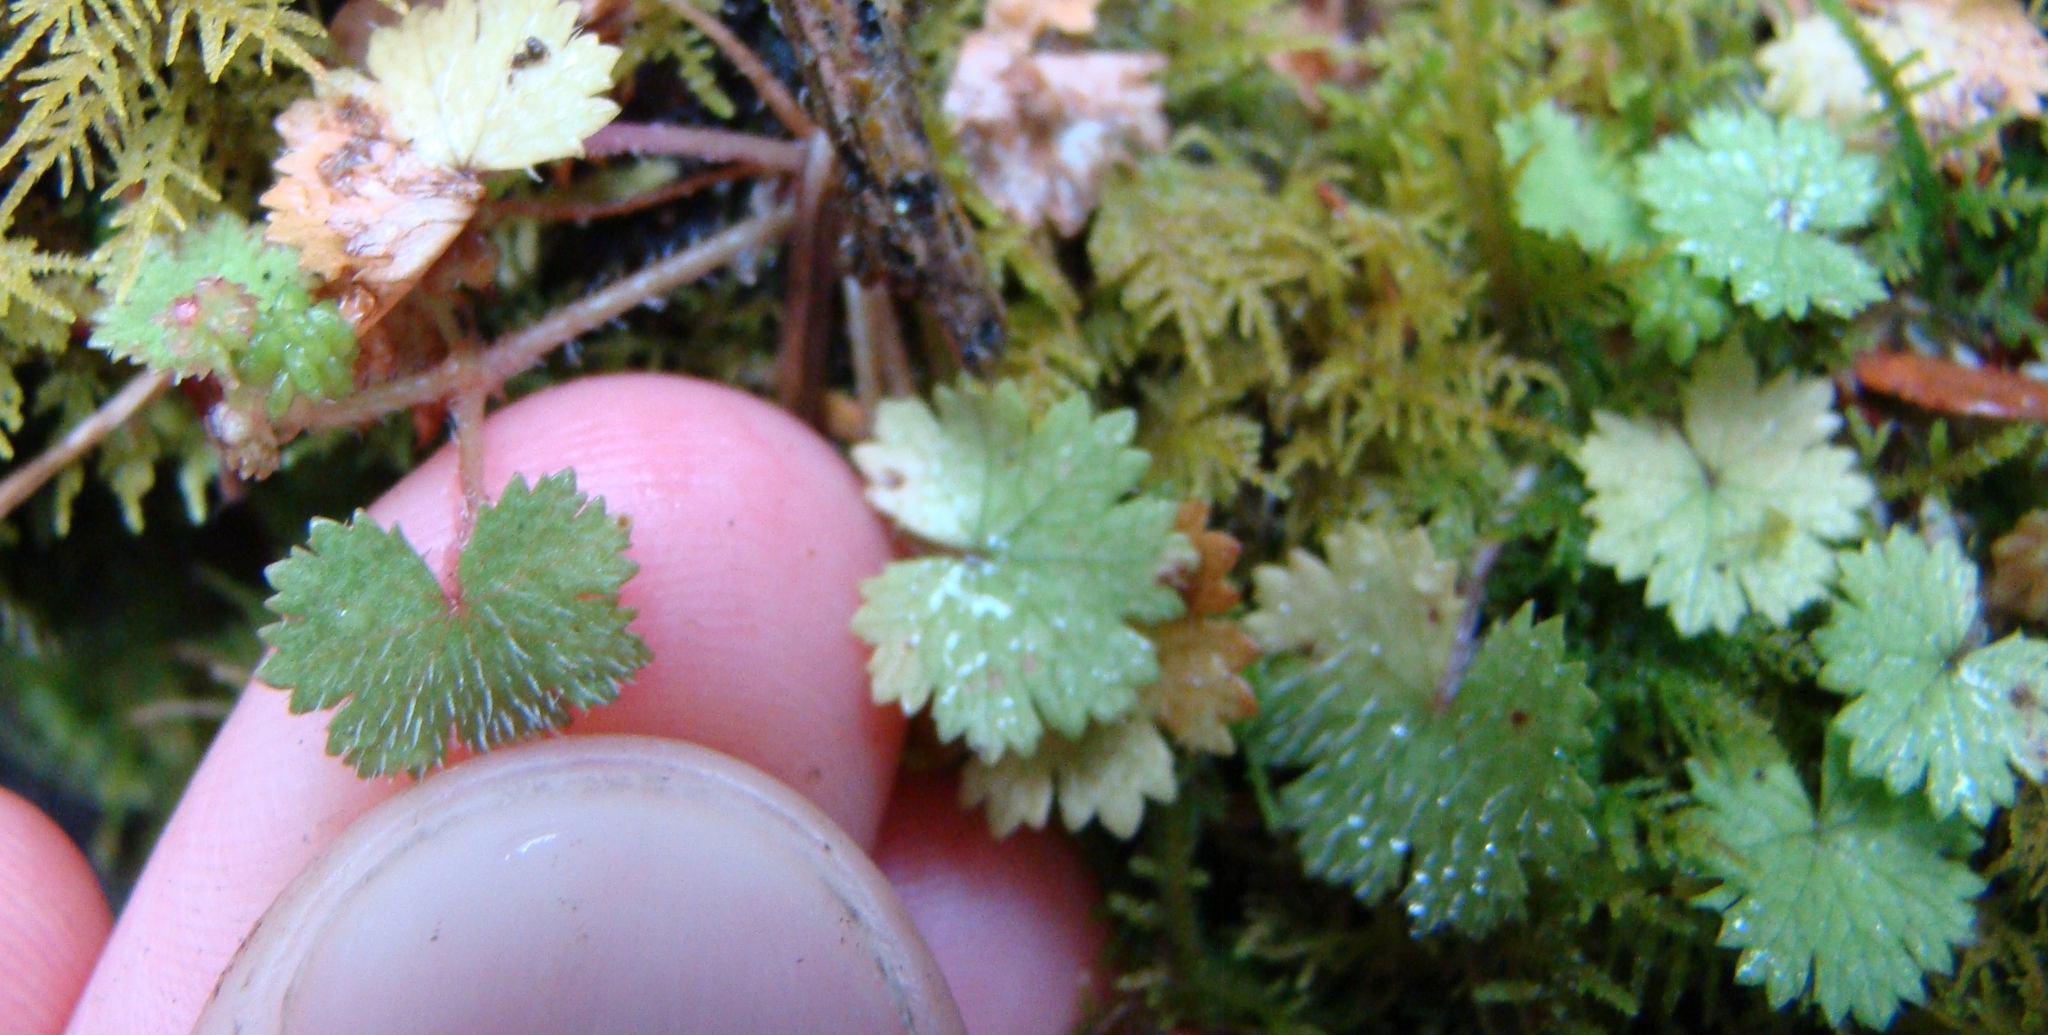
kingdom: Plantae
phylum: Tracheophyta
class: Magnoliopsida
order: Apiales
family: Araliaceae
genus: Hydrocotyle
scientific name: Hydrocotyle moschata
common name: Hairy pennywort
